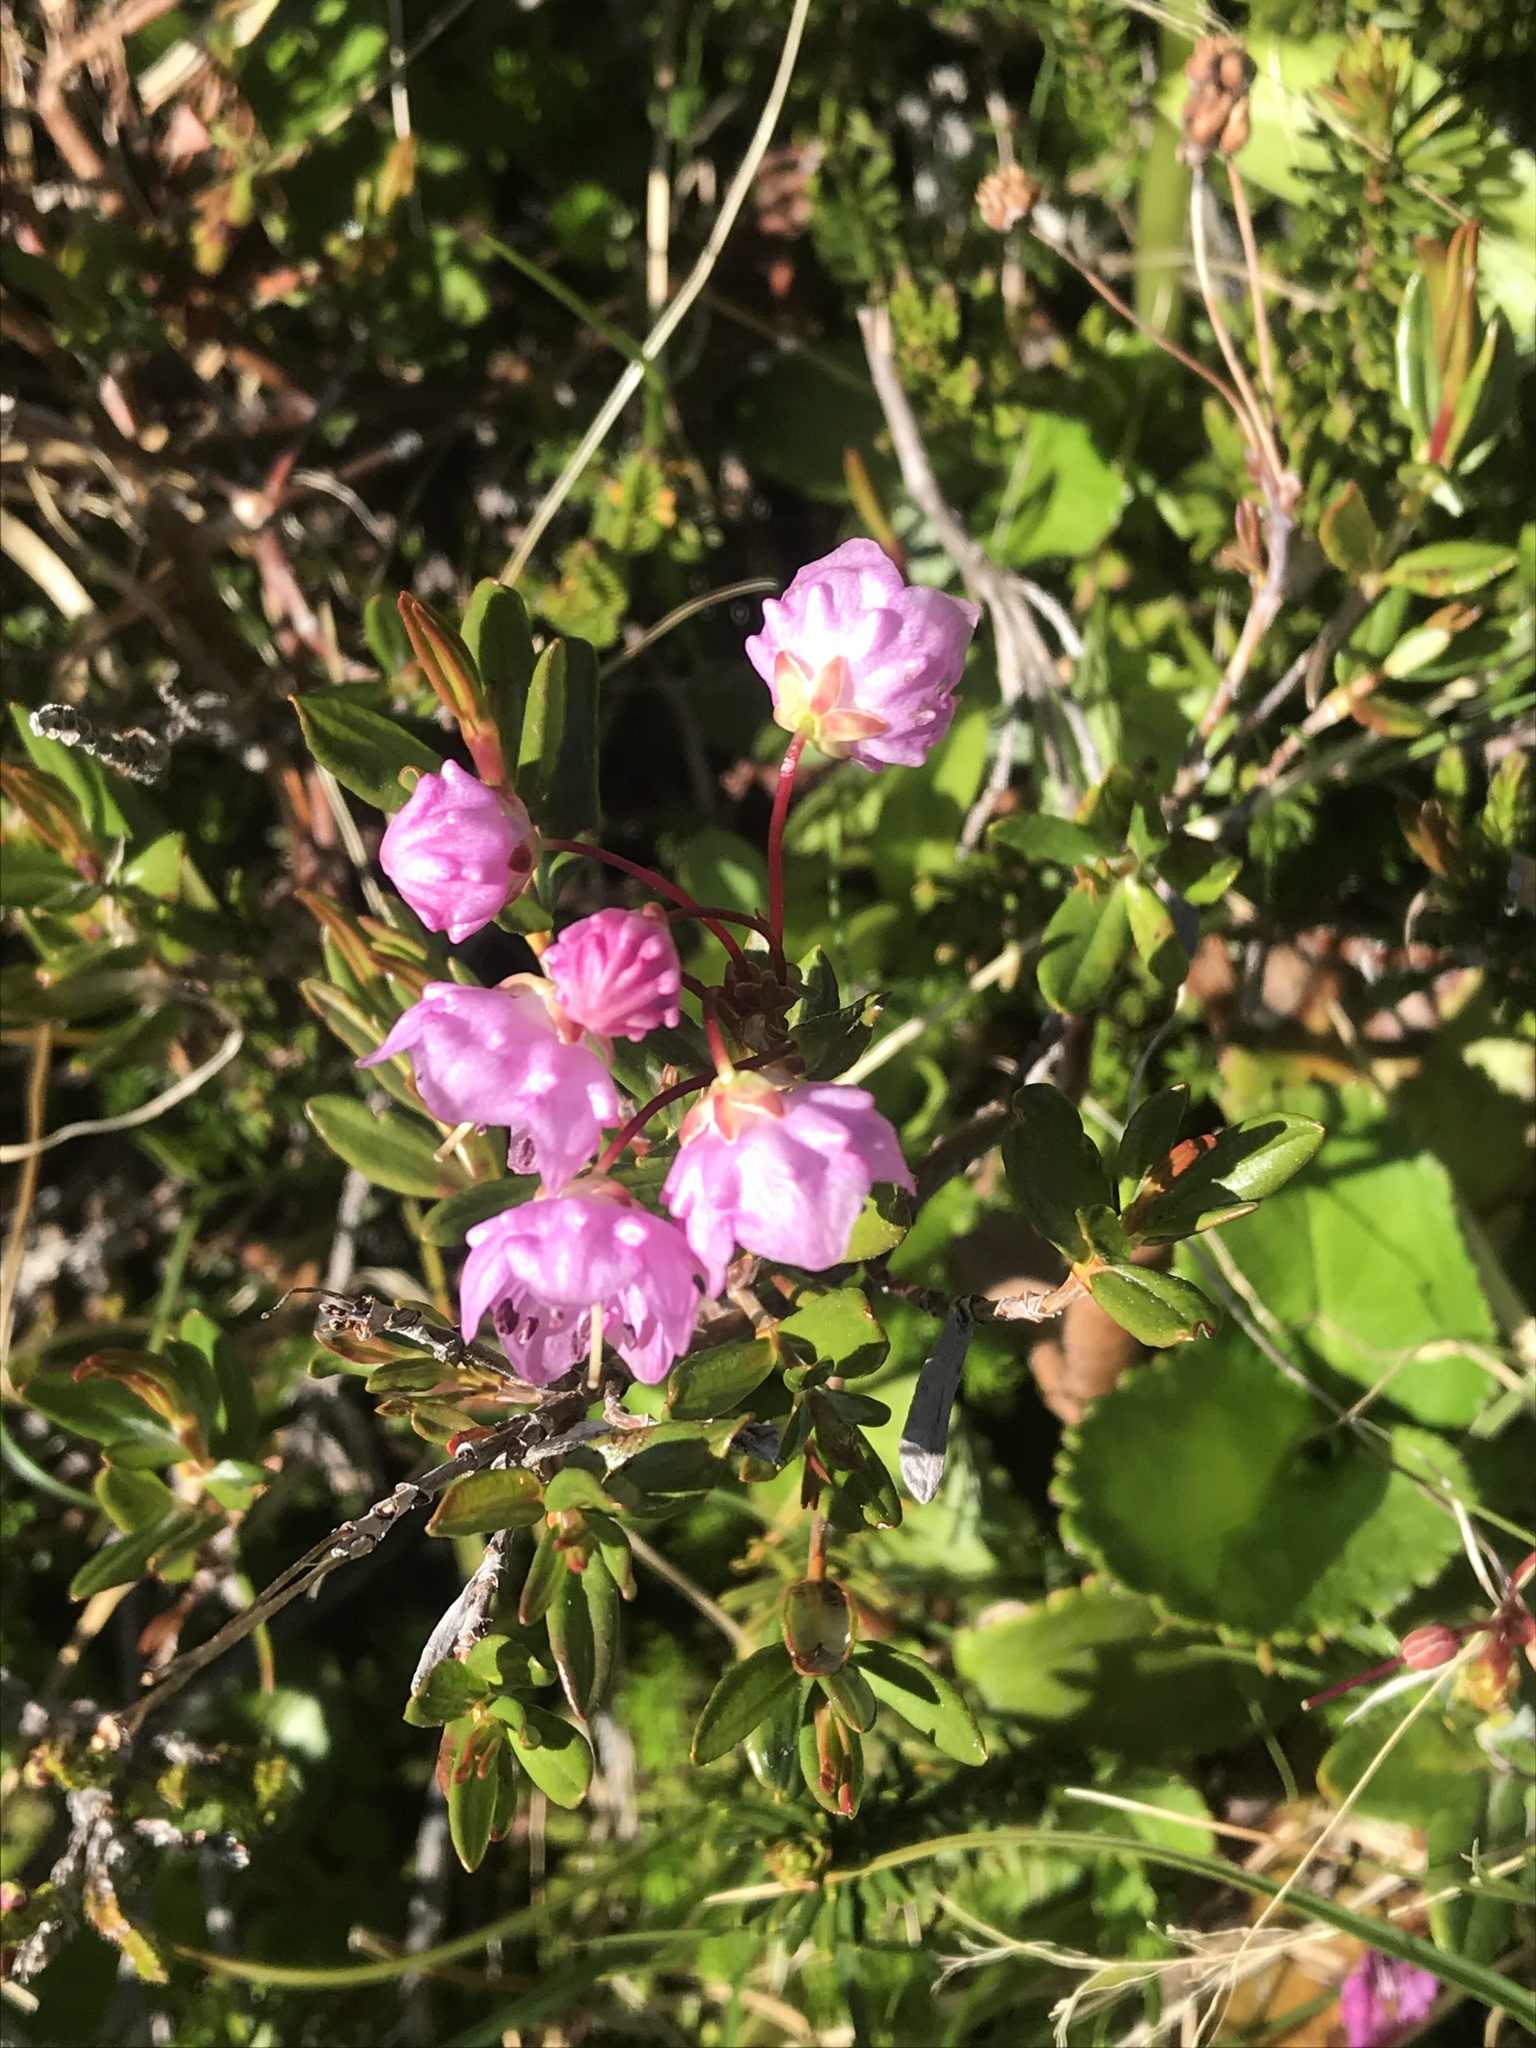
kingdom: Plantae
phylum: Tracheophyta
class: Magnoliopsida
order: Ericales
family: Ericaceae
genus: Kalmia
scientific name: Kalmia microphylla
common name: Alpine bog laurel
